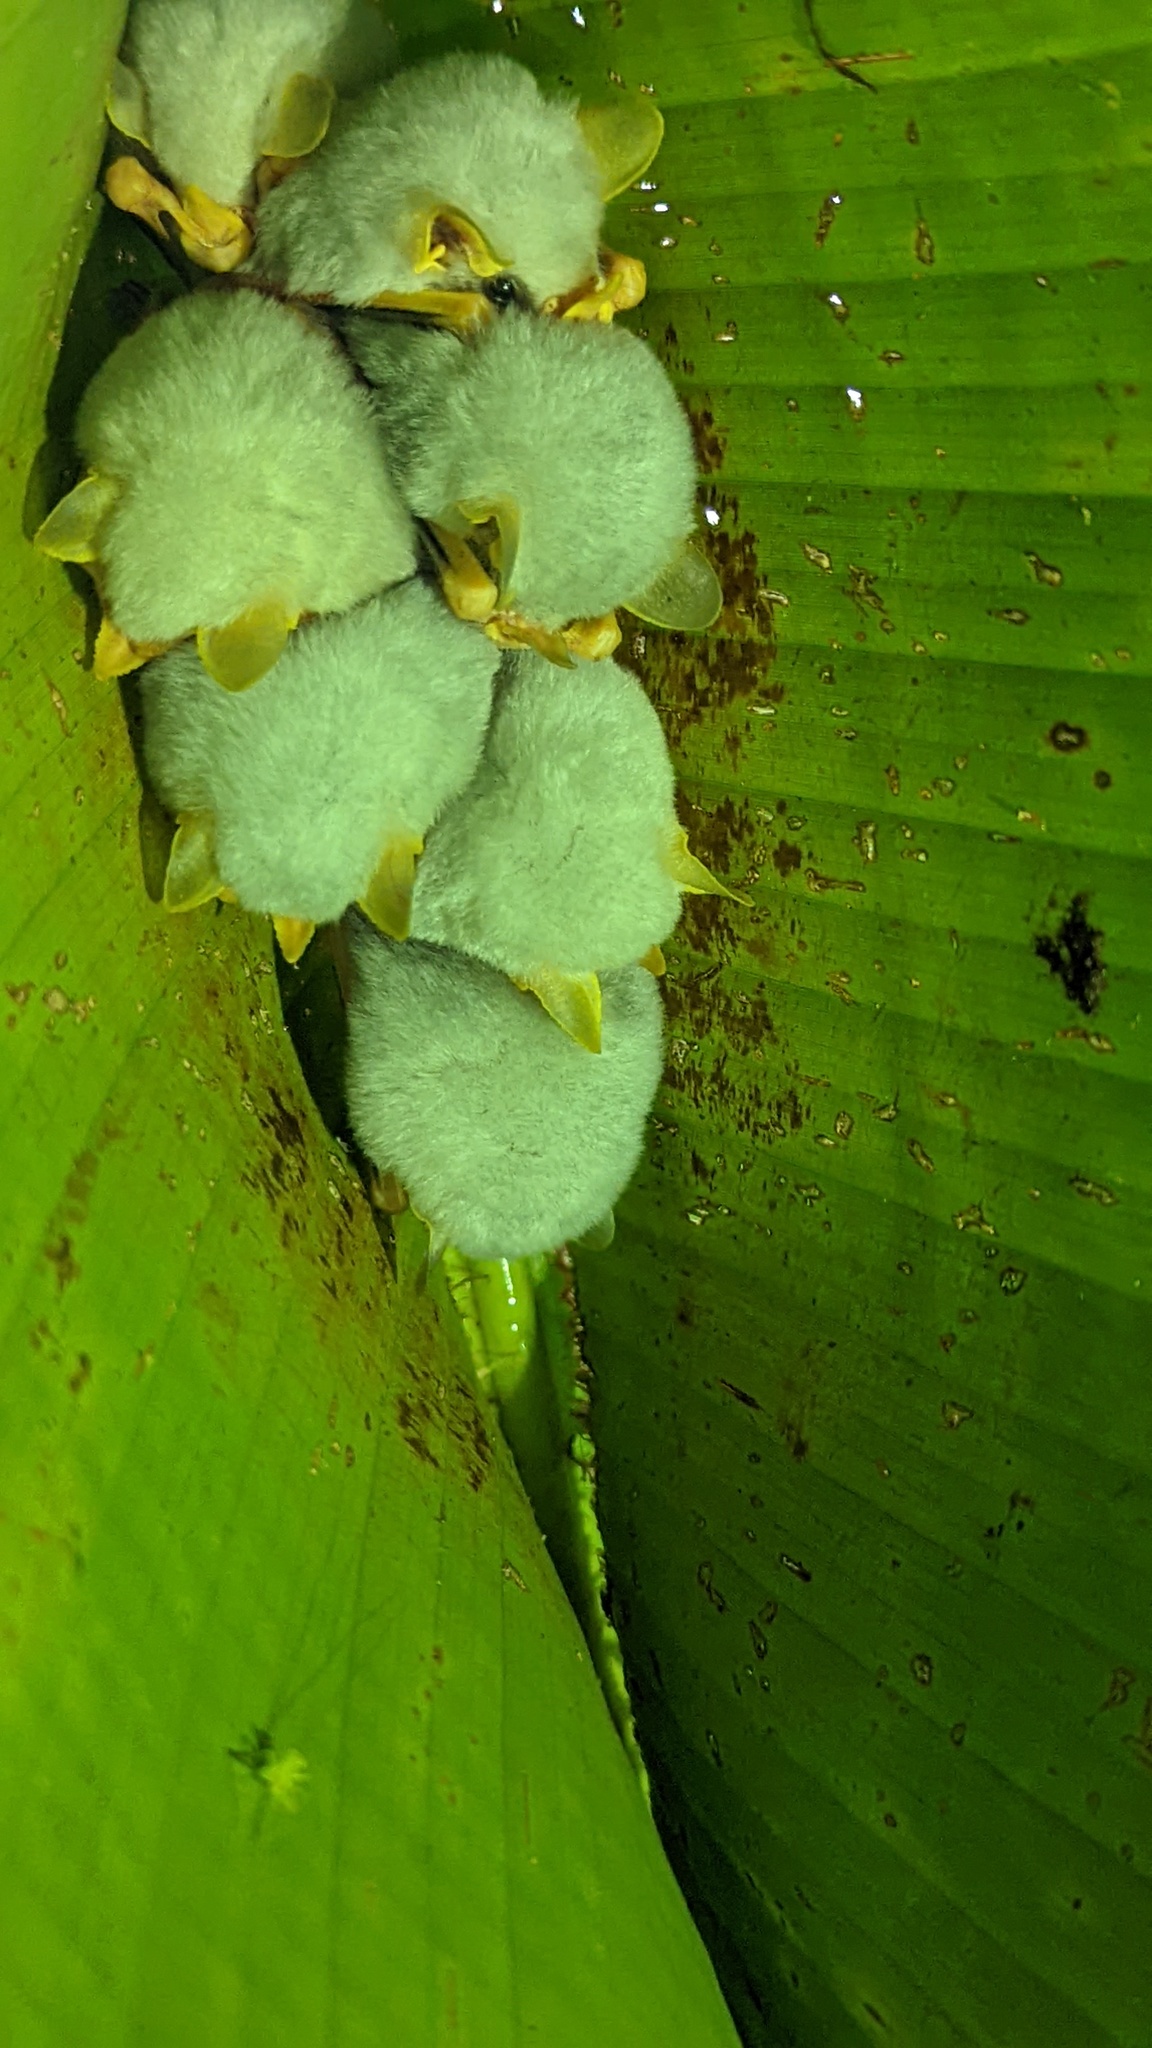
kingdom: Animalia
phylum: Chordata
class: Mammalia
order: Chiroptera
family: Phyllostomidae
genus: Ectophylla
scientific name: Ectophylla alba
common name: Honduran white bat
